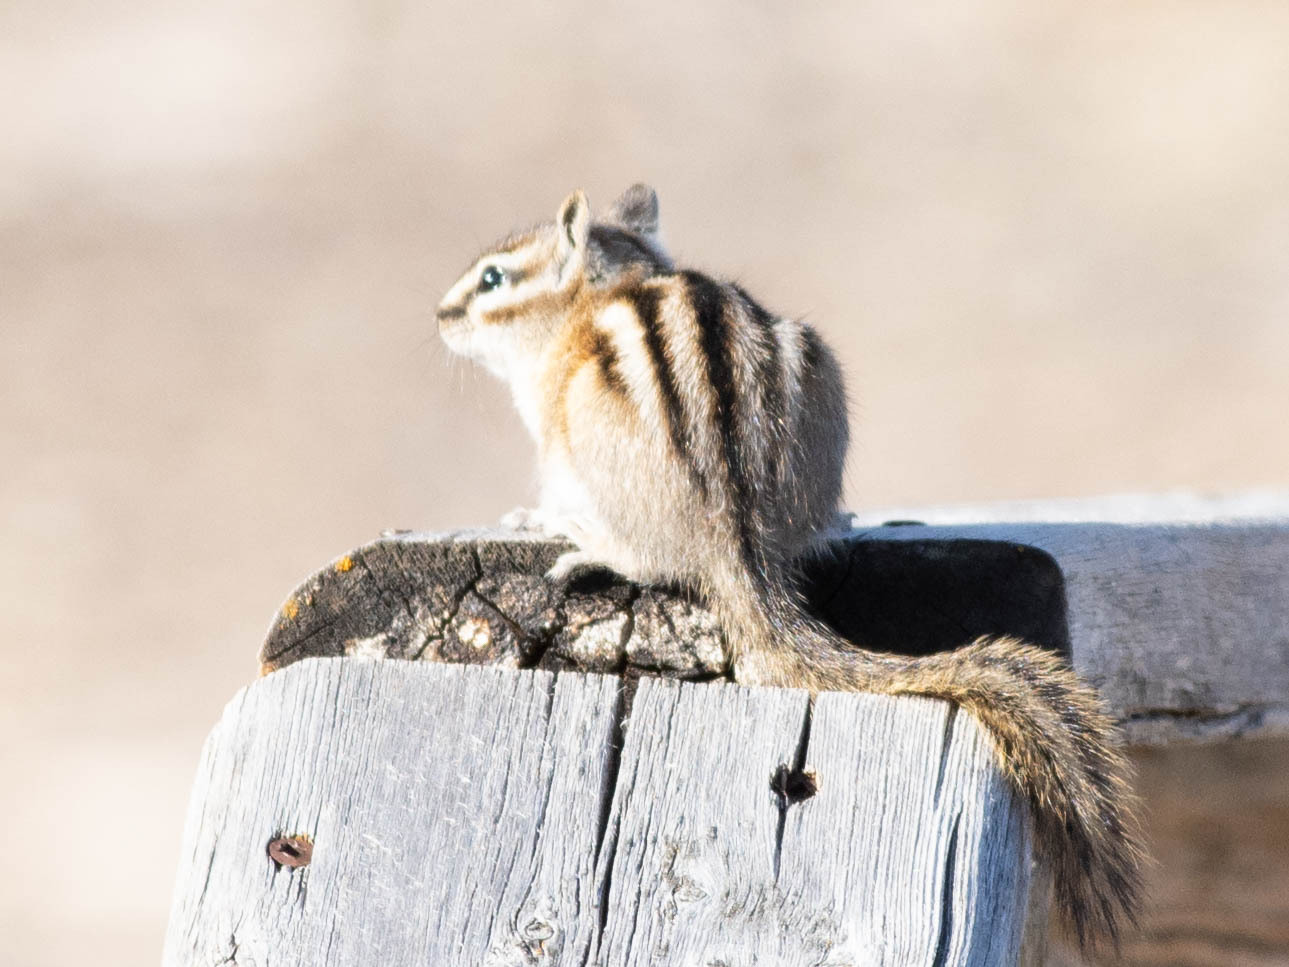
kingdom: Animalia
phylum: Chordata
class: Mammalia
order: Rodentia
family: Sciuridae
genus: Tamias
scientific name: Tamias minimus
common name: Least chipmunk
